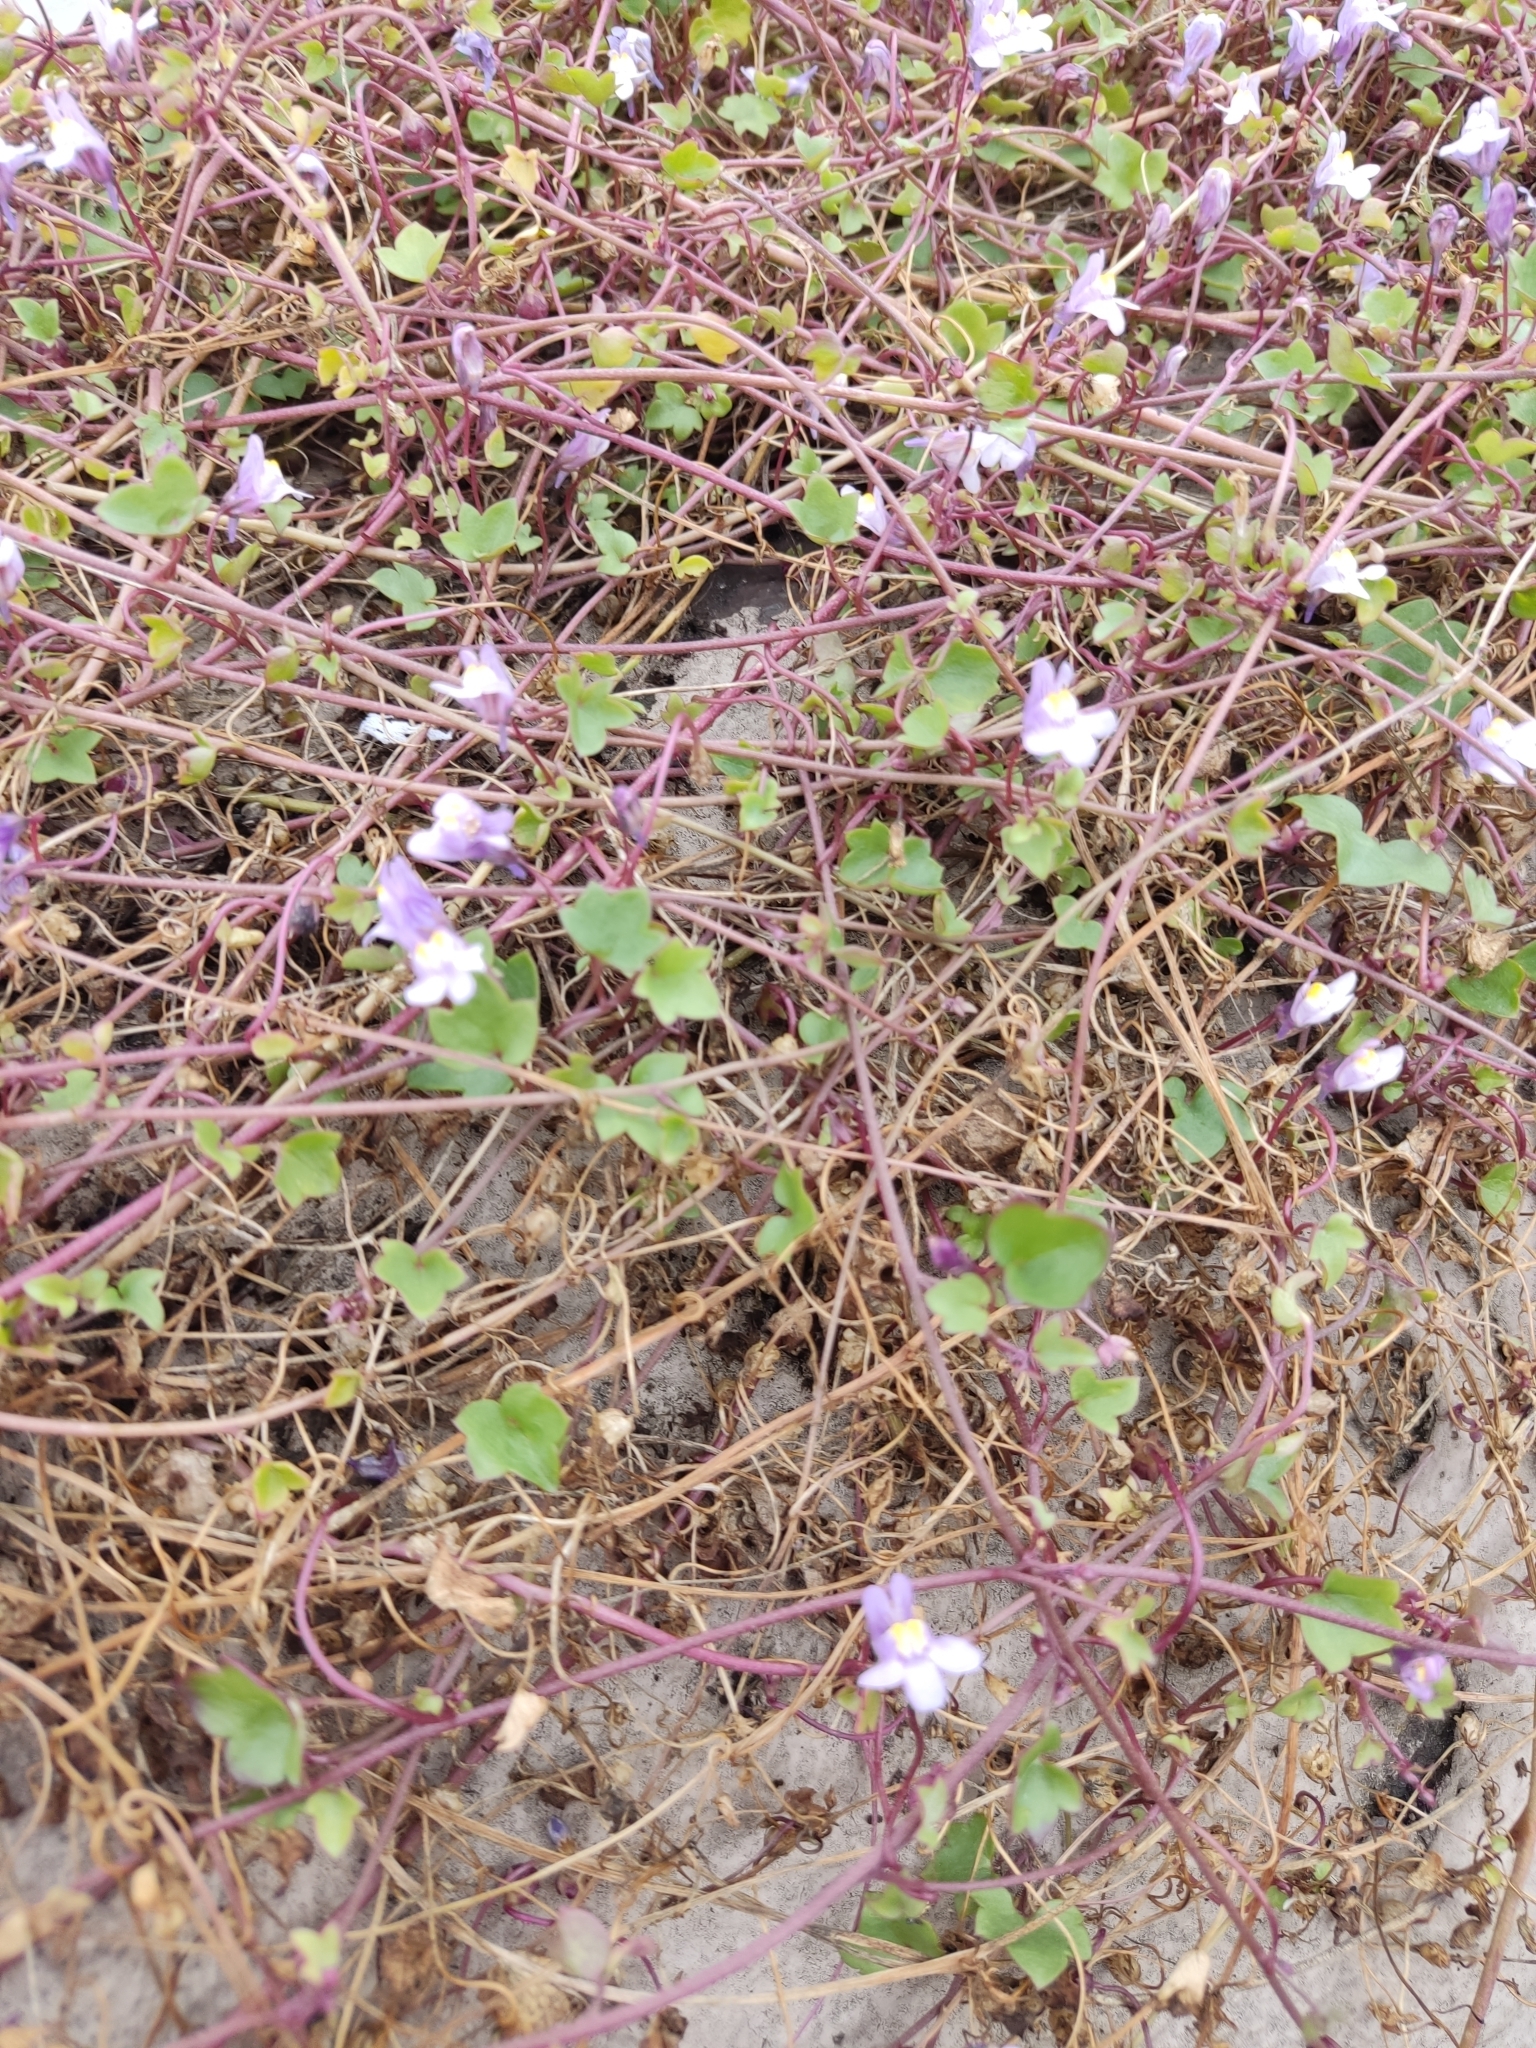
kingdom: Plantae
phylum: Tracheophyta
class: Magnoliopsida
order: Lamiales
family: Plantaginaceae
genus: Cymbalaria
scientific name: Cymbalaria muralis
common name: Ivy-leaved toadflax
